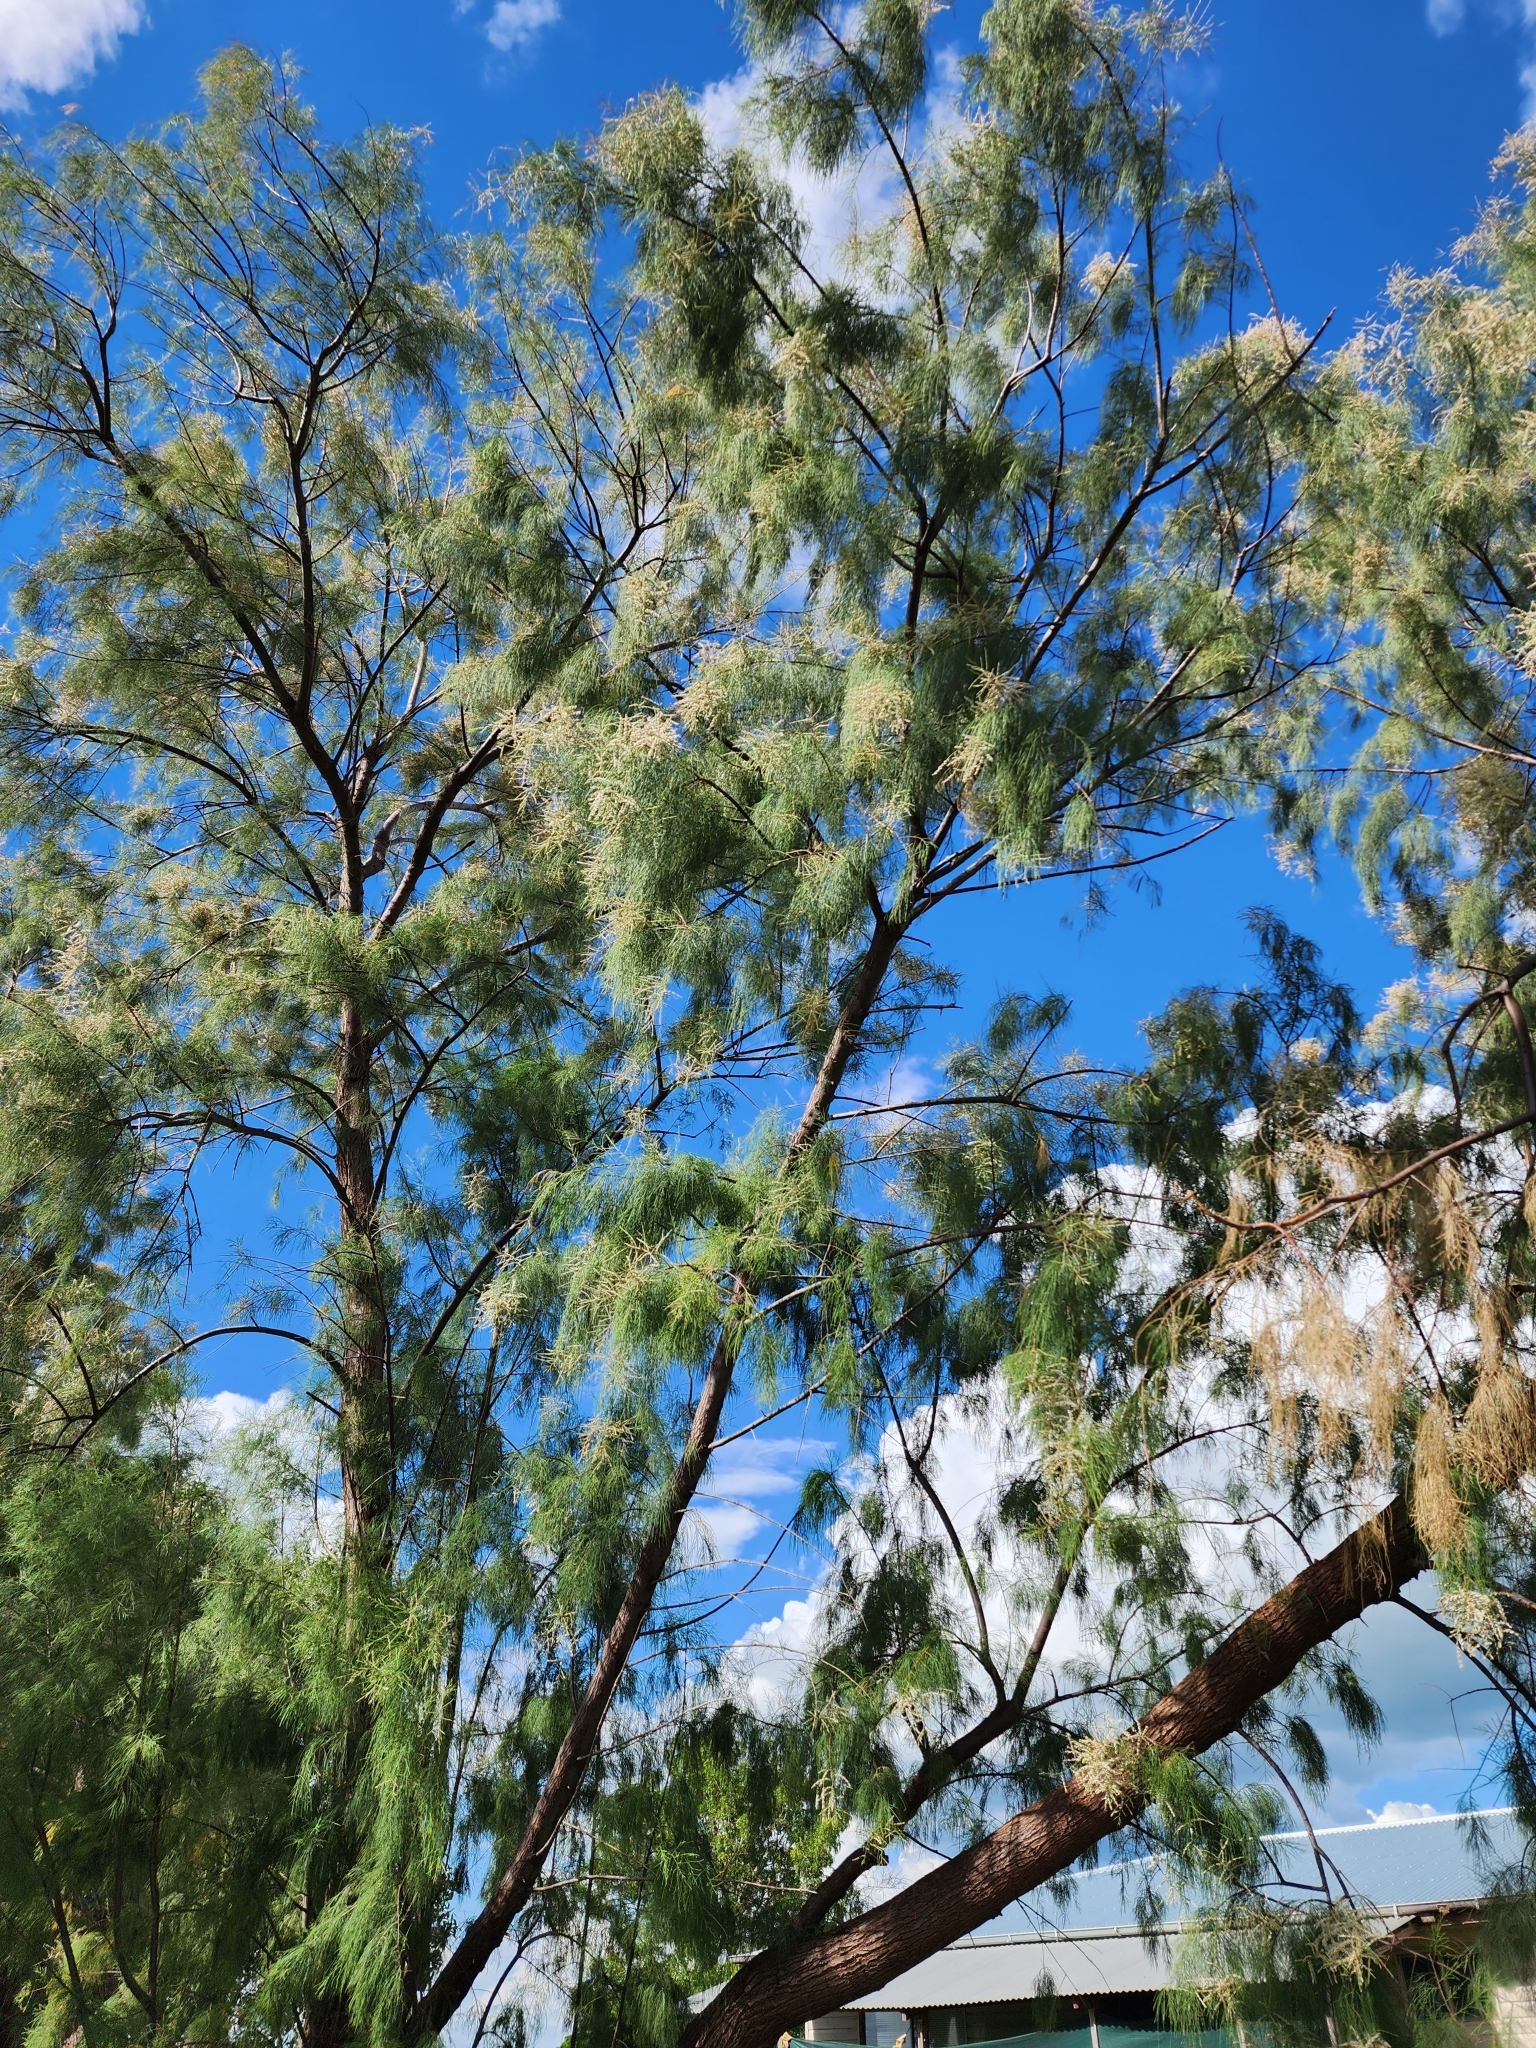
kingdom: Plantae
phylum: Tracheophyta
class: Magnoliopsida
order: Caryophyllales
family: Tamaricaceae
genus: Tamarix
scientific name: Tamarix aphylla
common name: Athel tamarisk
